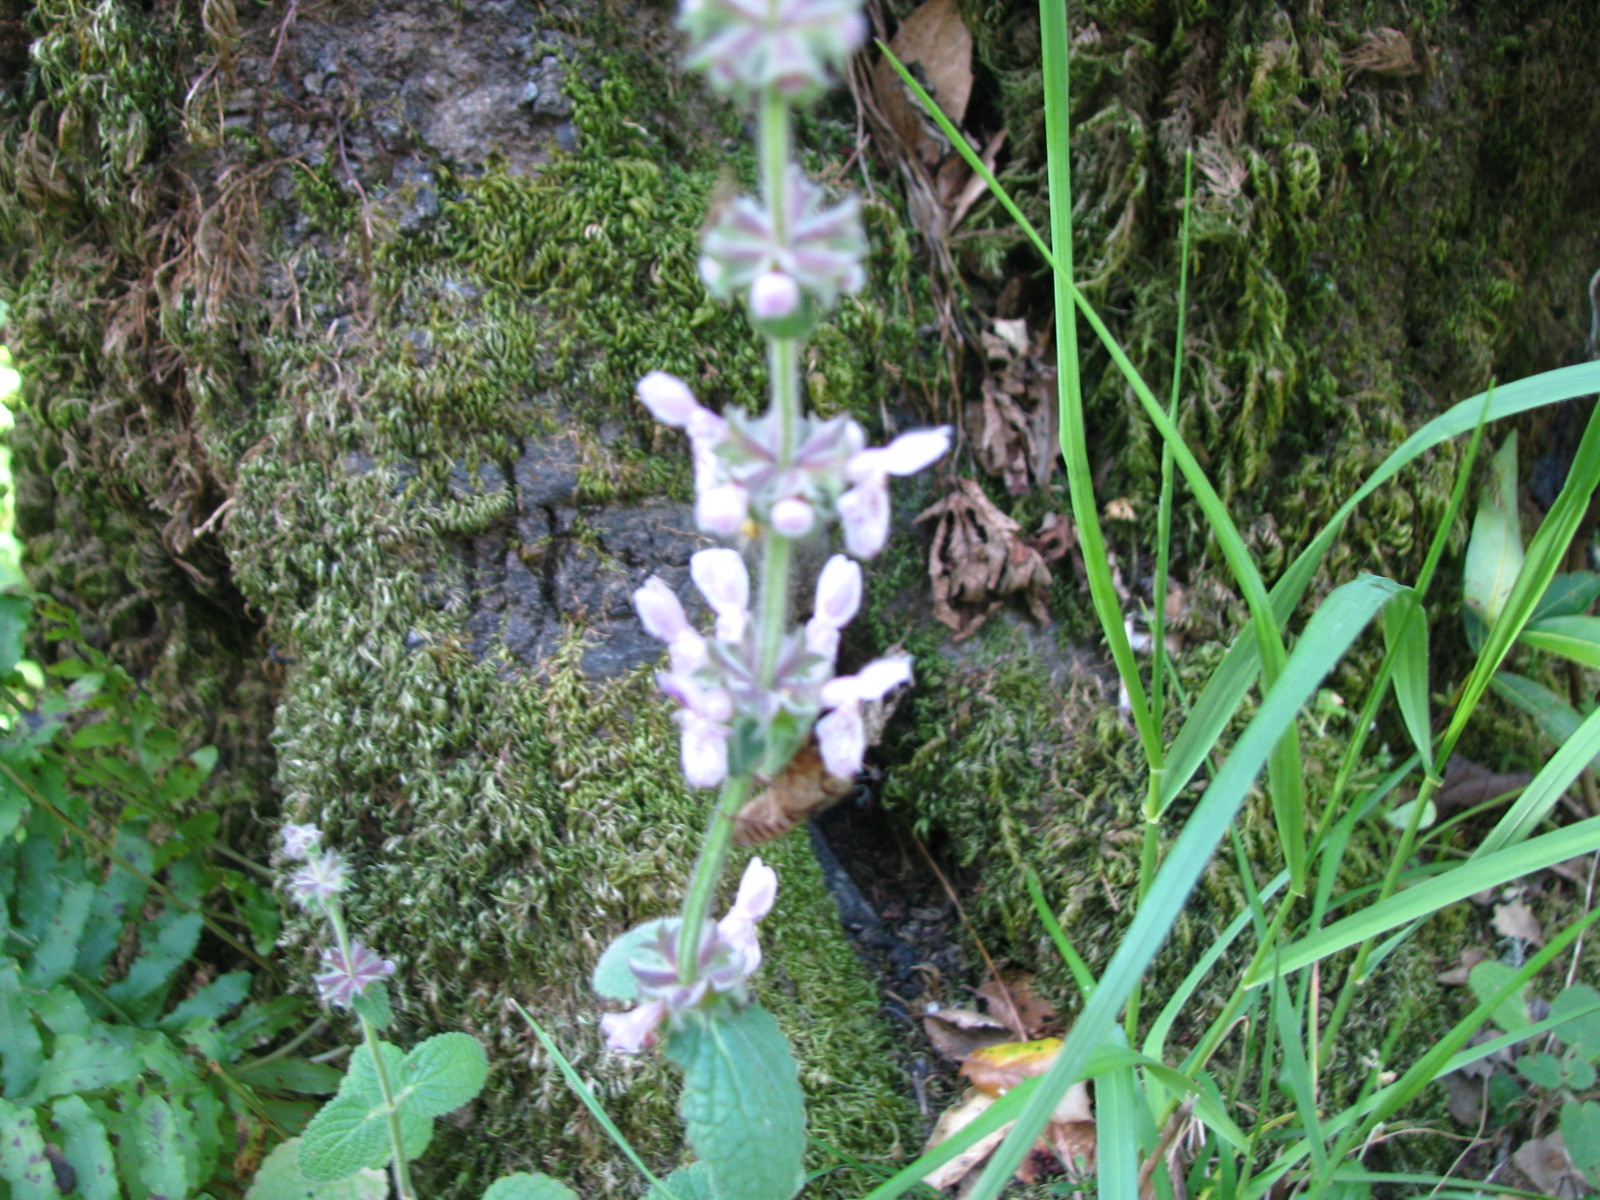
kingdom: Plantae
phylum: Tracheophyta
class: Magnoliopsida
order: Lamiales
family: Lamiaceae
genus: Stachys
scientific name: Stachys rigida
